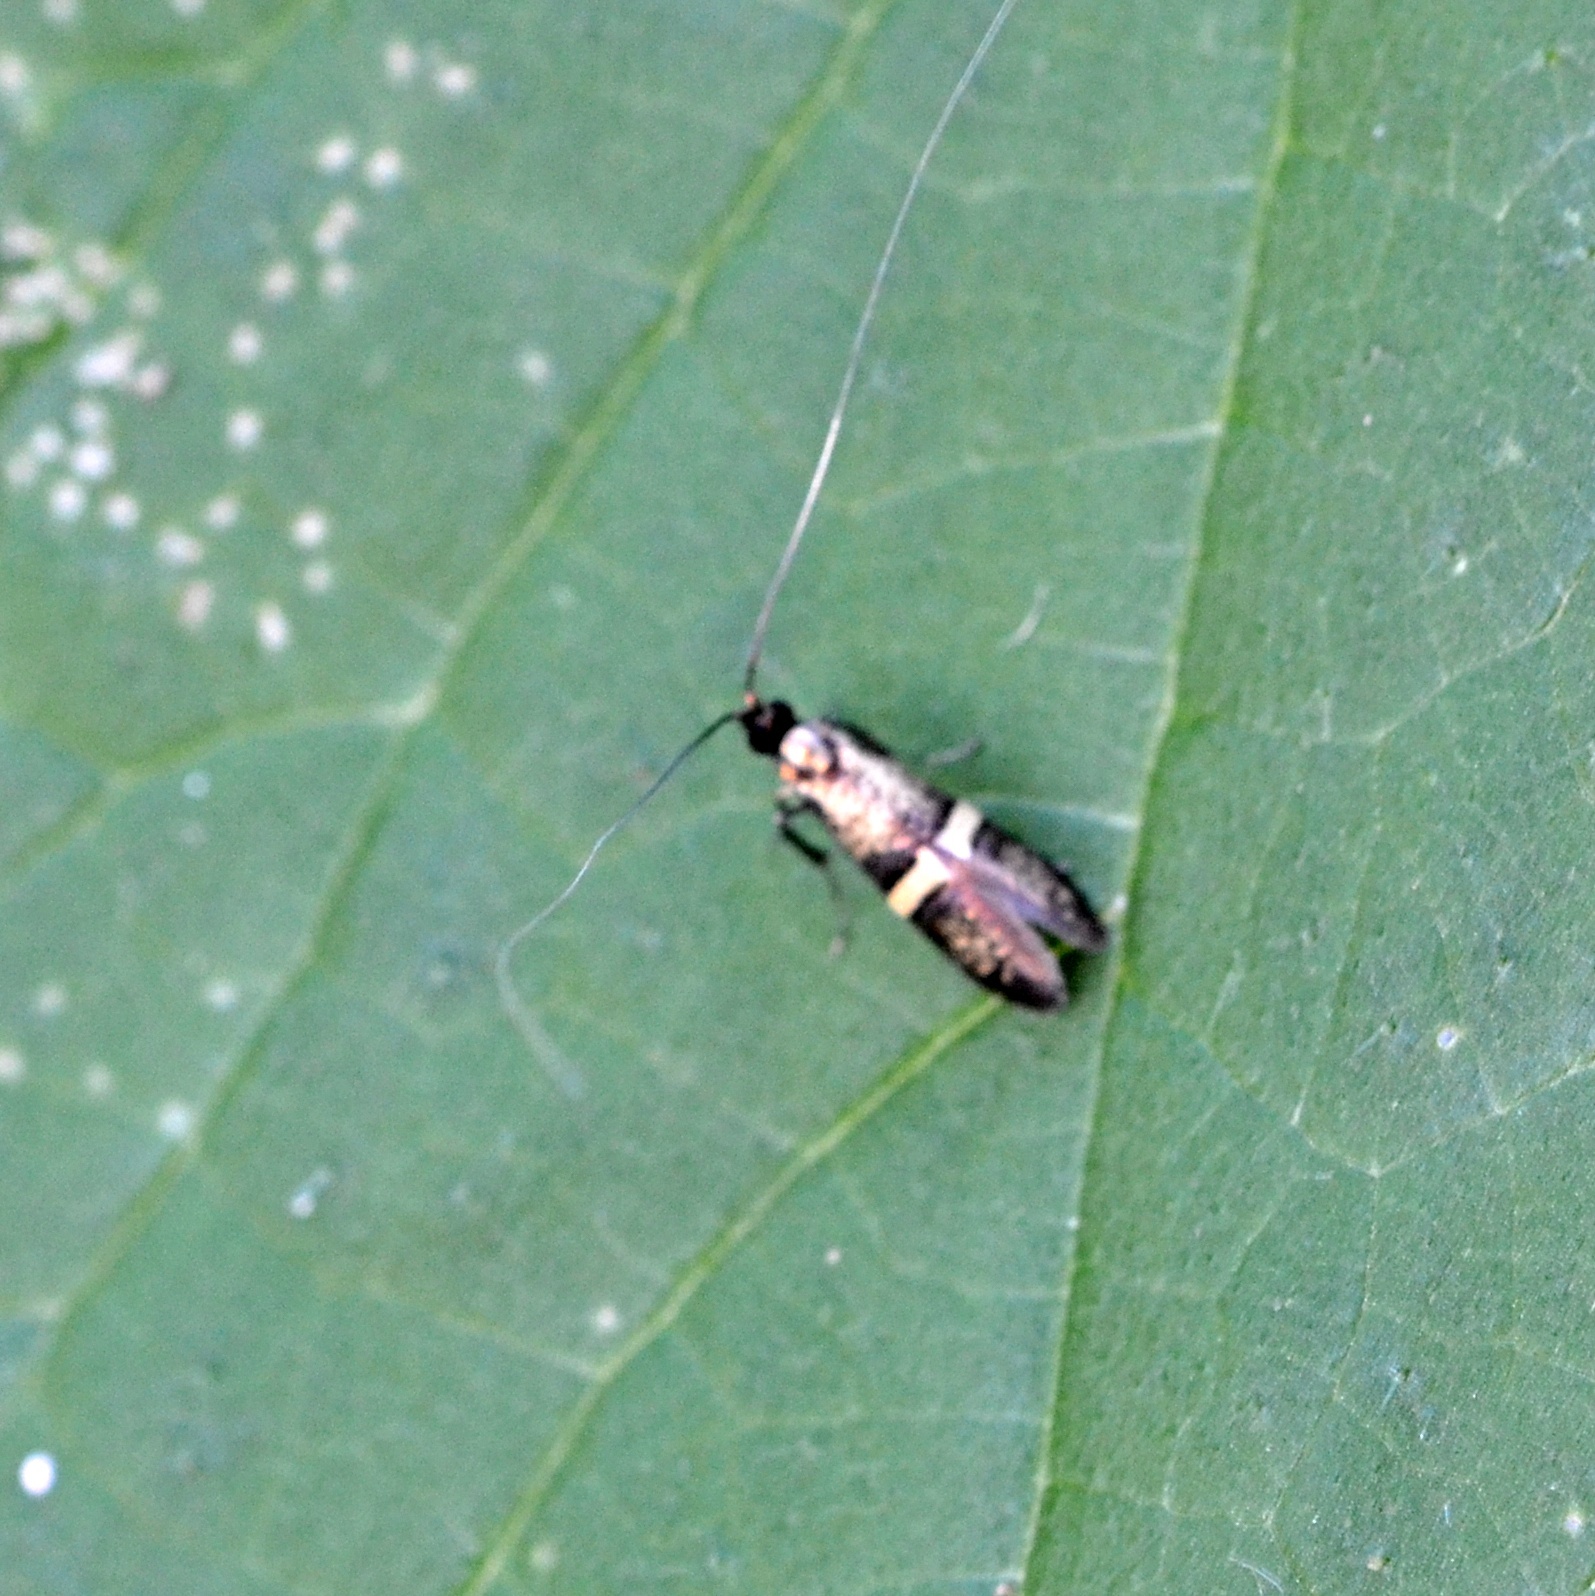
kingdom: Animalia
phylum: Arthropoda
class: Insecta
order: Lepidoptera
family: Adelidae
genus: Nemophora
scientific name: Nemophora associatella
